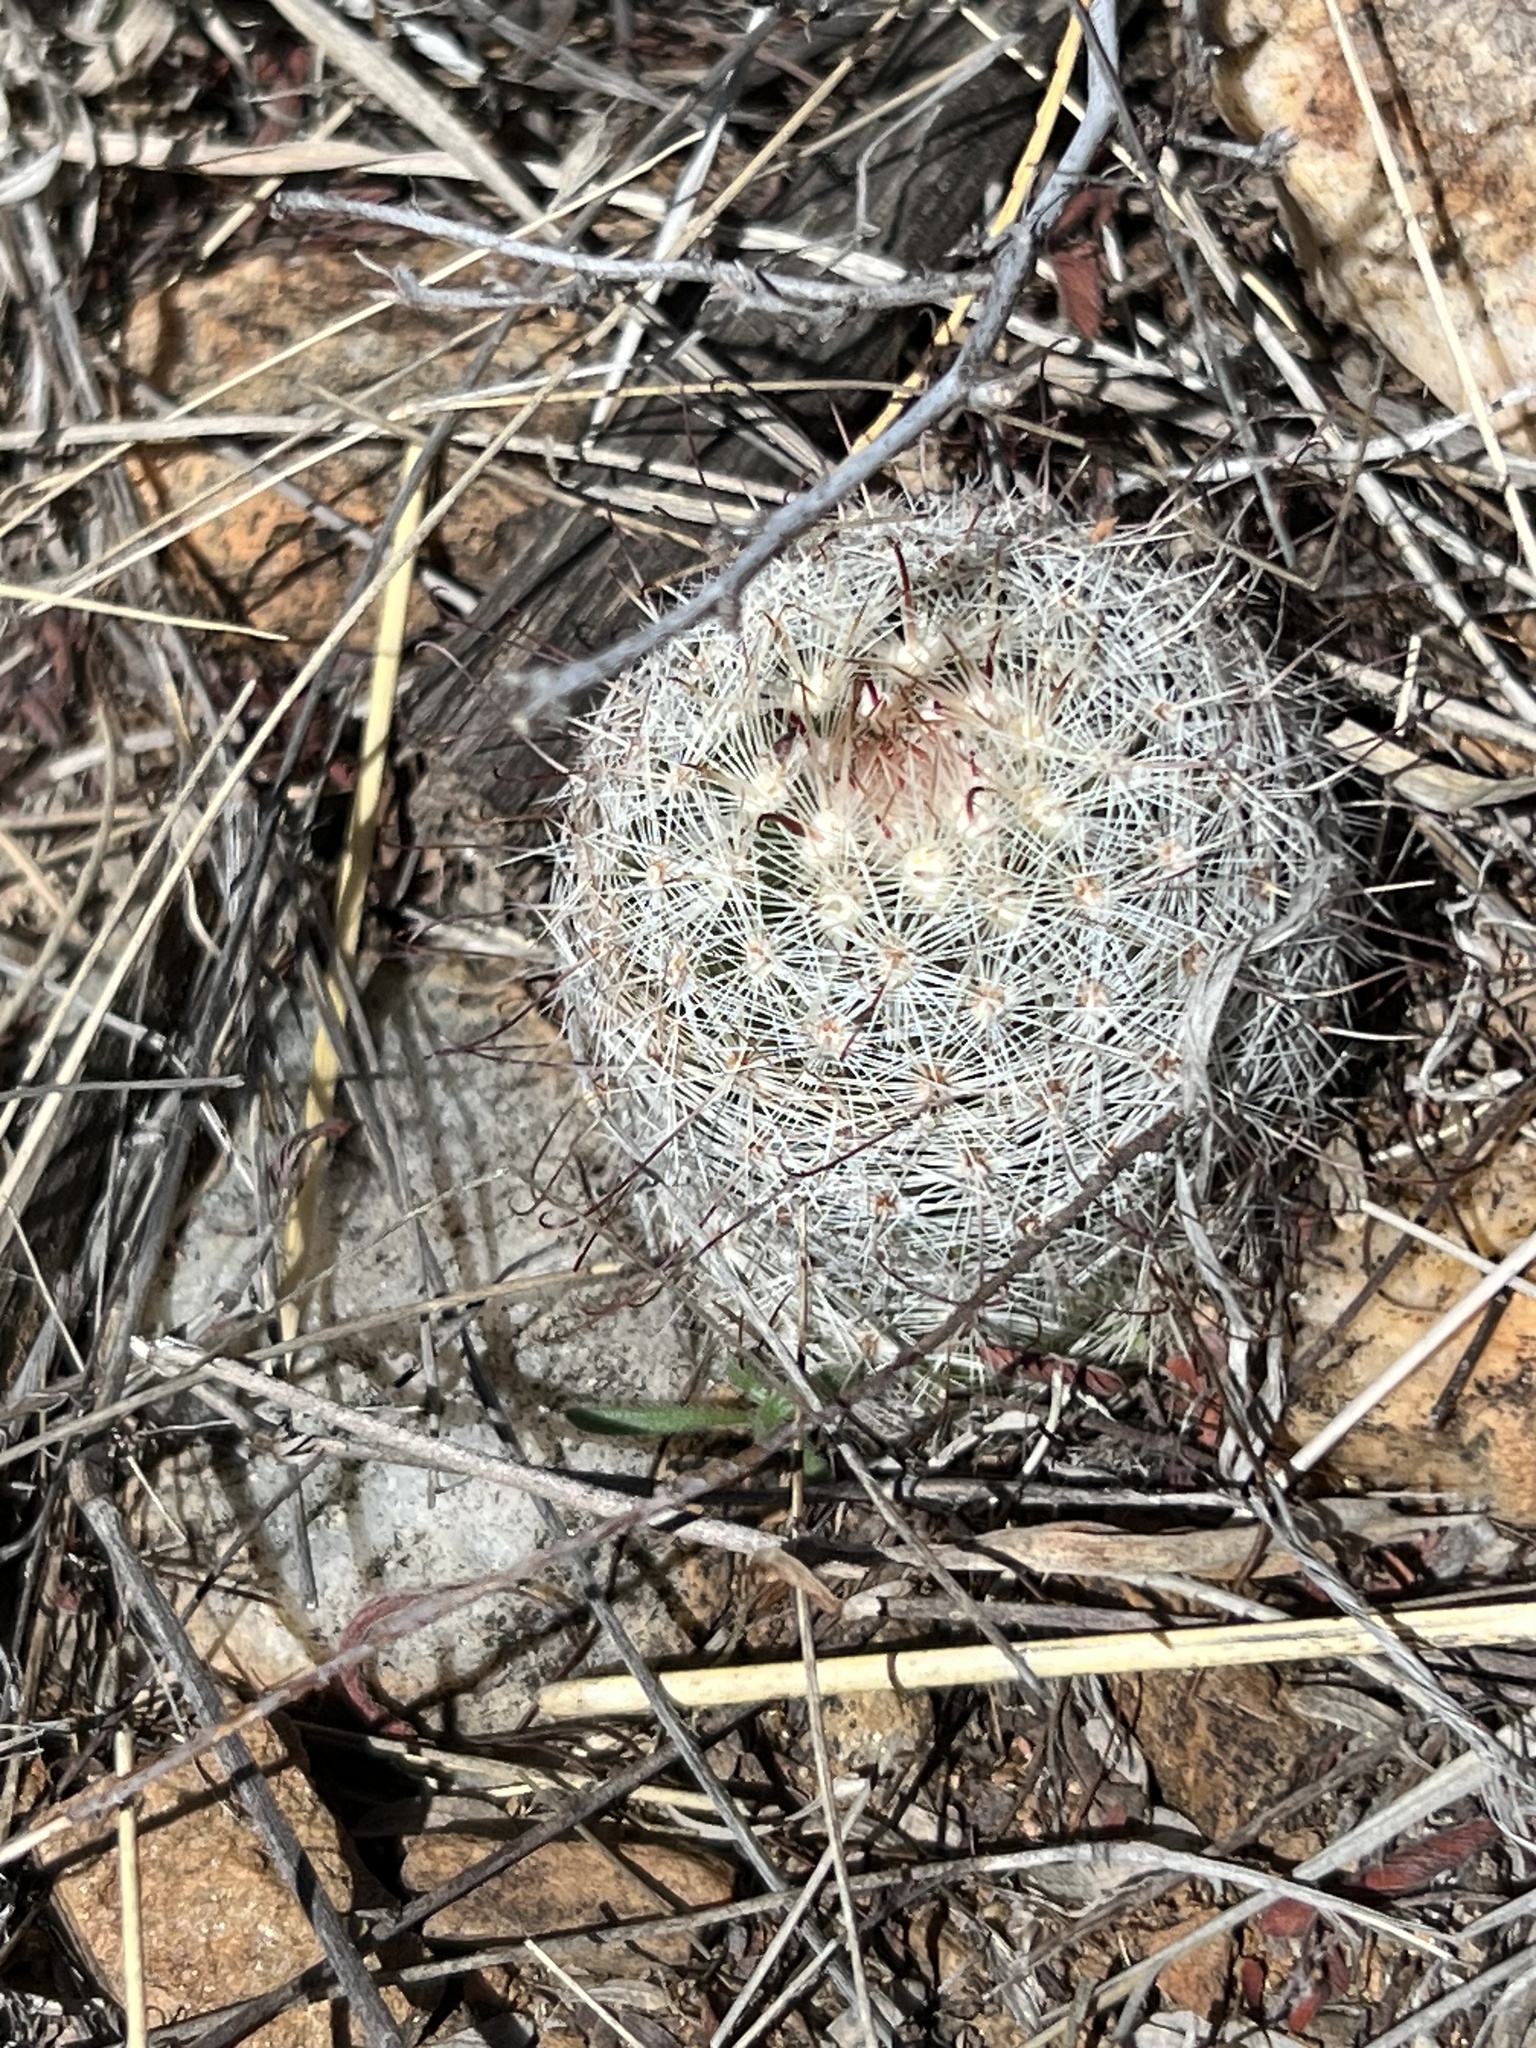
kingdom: Plantae
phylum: Tracheophyta
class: Magnoliopsida
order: Caryophyllales
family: Cactaceae
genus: Cochemiea
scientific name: Cochemiea grahamii
